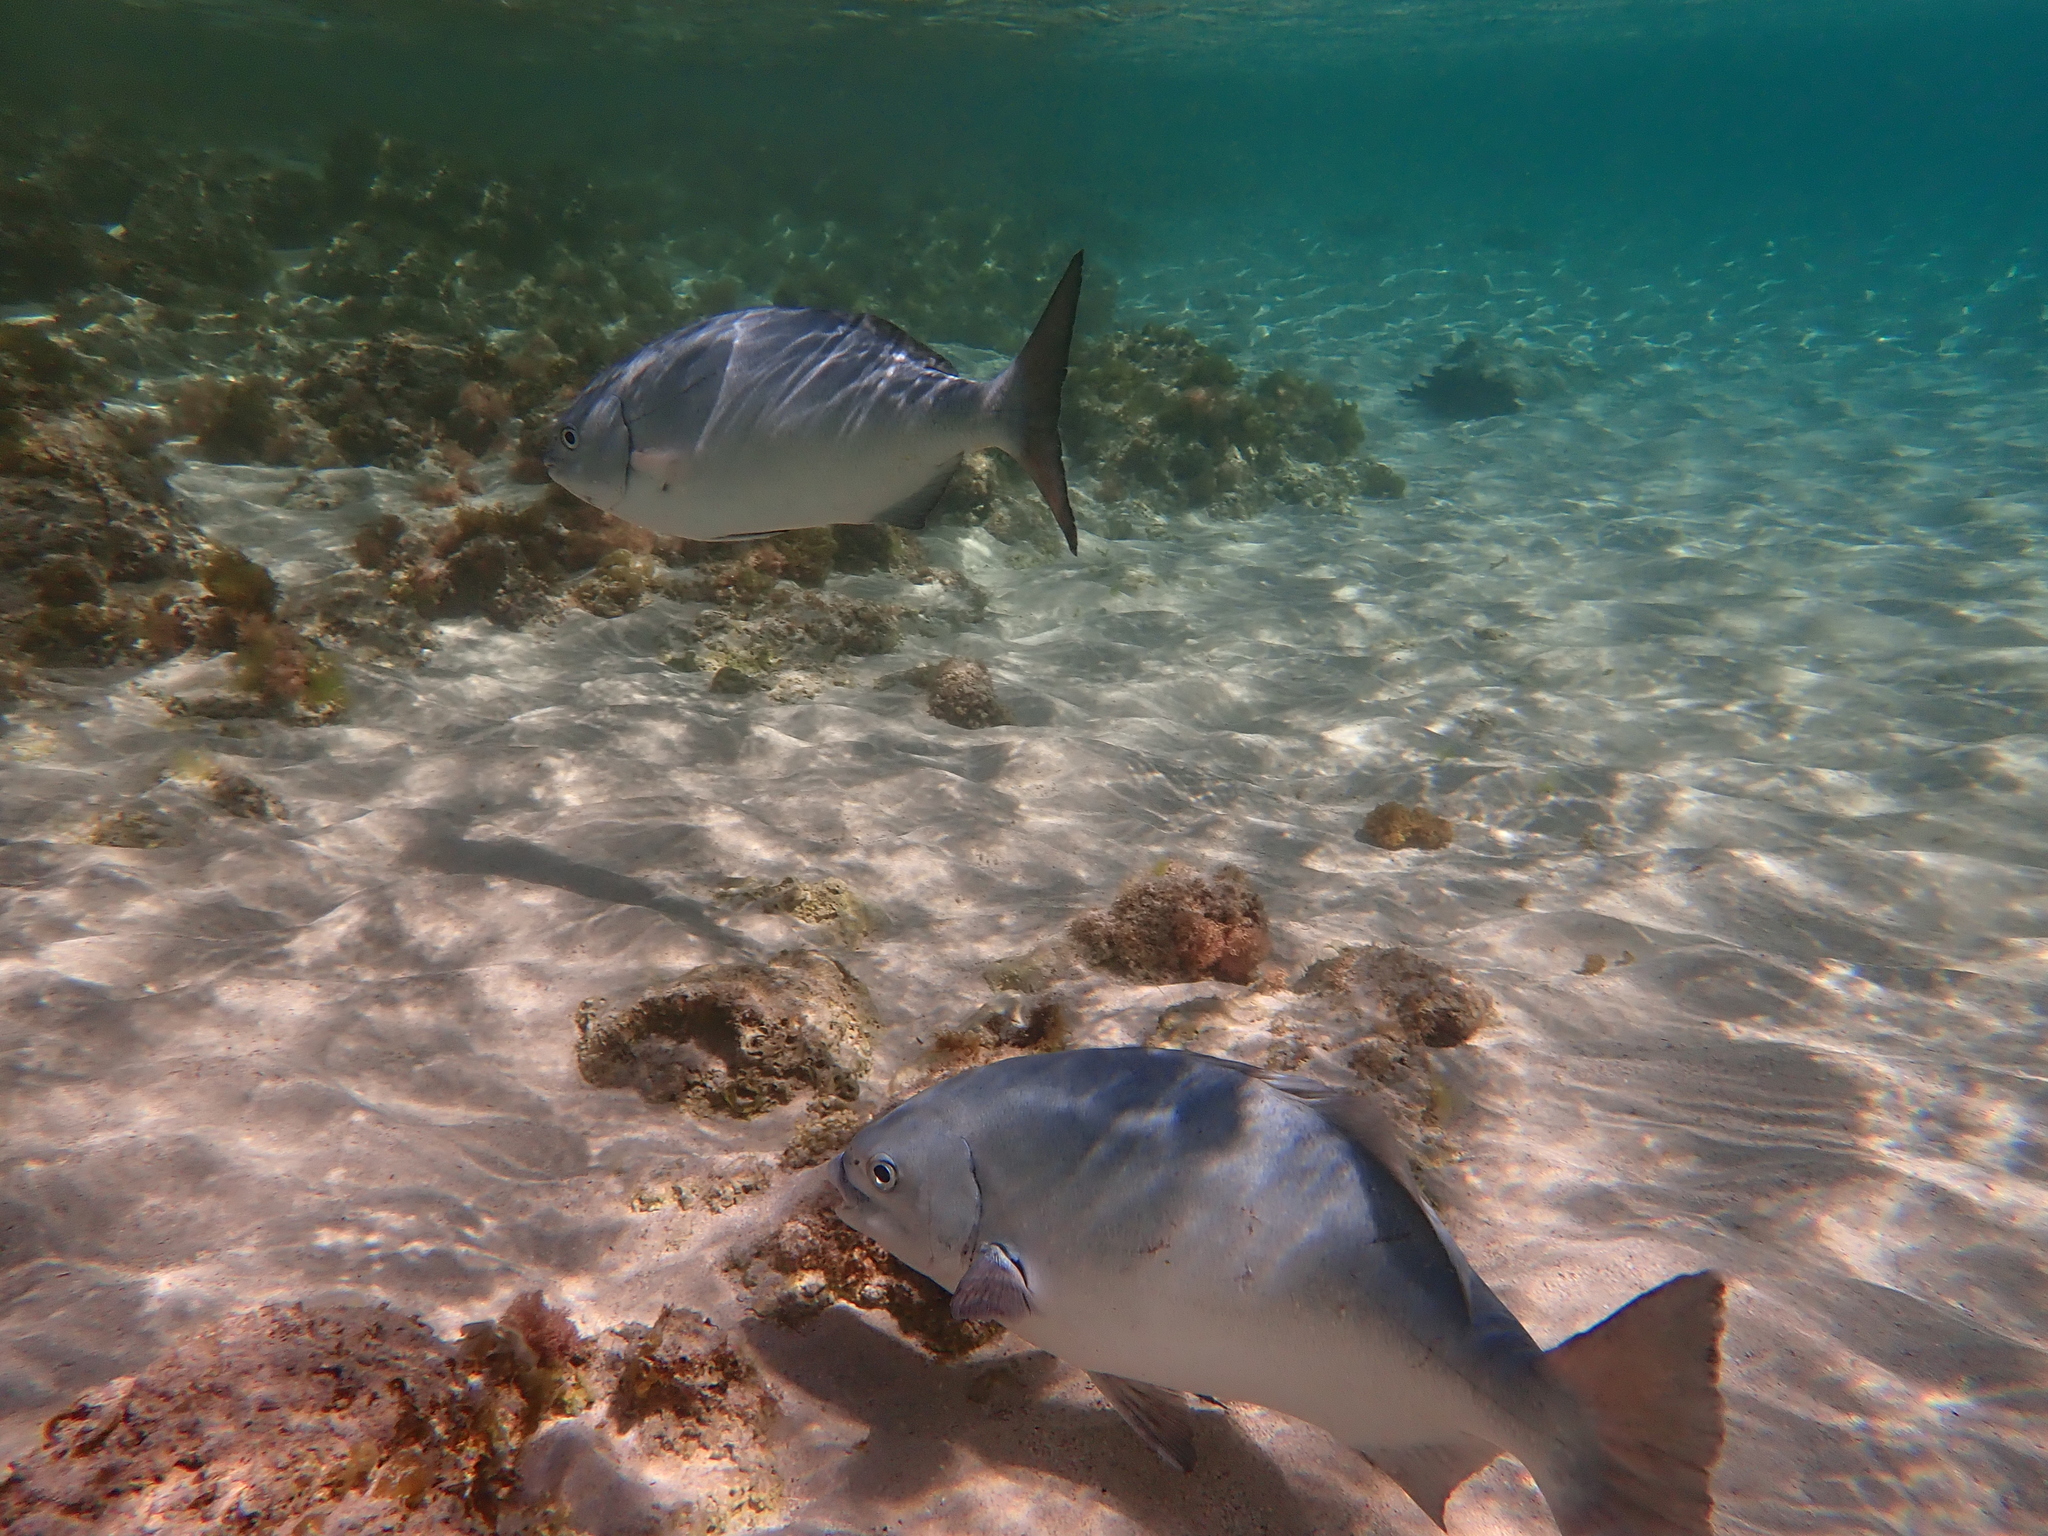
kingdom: Animalia
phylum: Chordata
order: Perciformes
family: Kyphosidae
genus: Kyphosus
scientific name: Kyphosus bigibbus
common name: Brown chub
